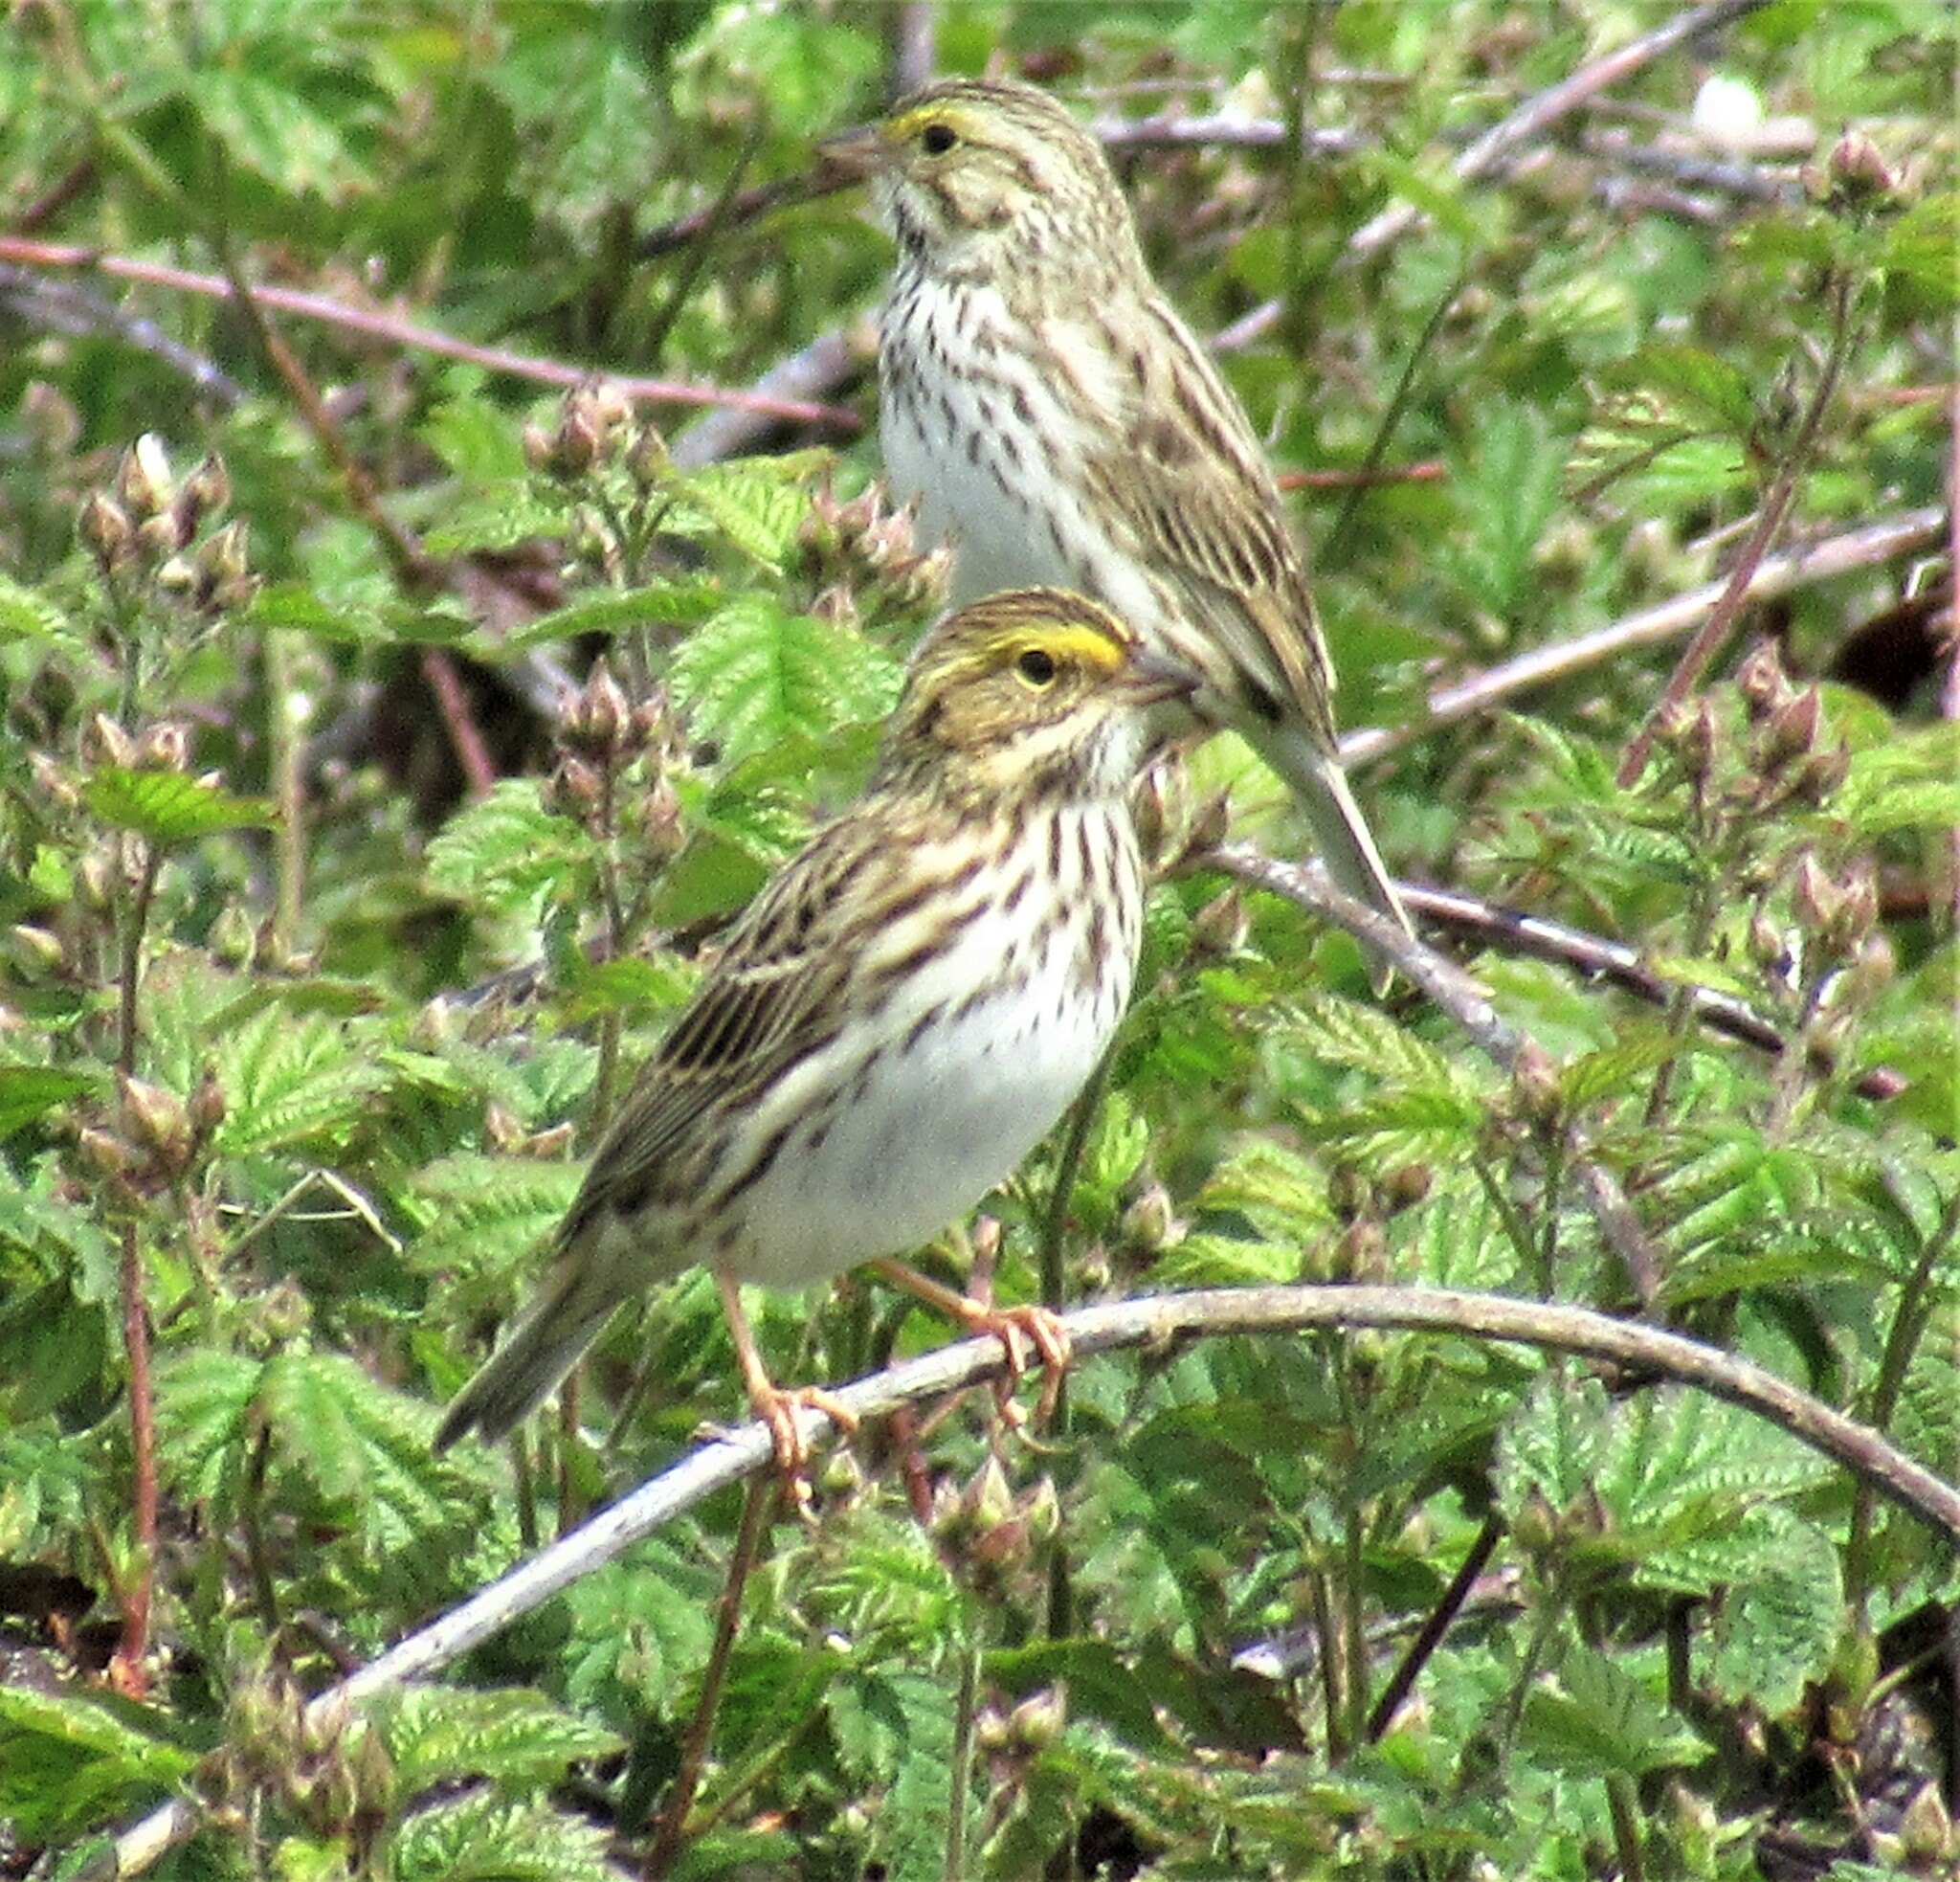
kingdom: Animalia
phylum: Chordata
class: Aves
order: Passeriformes
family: Passerellidae
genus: Passerculus
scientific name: Passerculus sandwichensis
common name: Savannah sparrow
